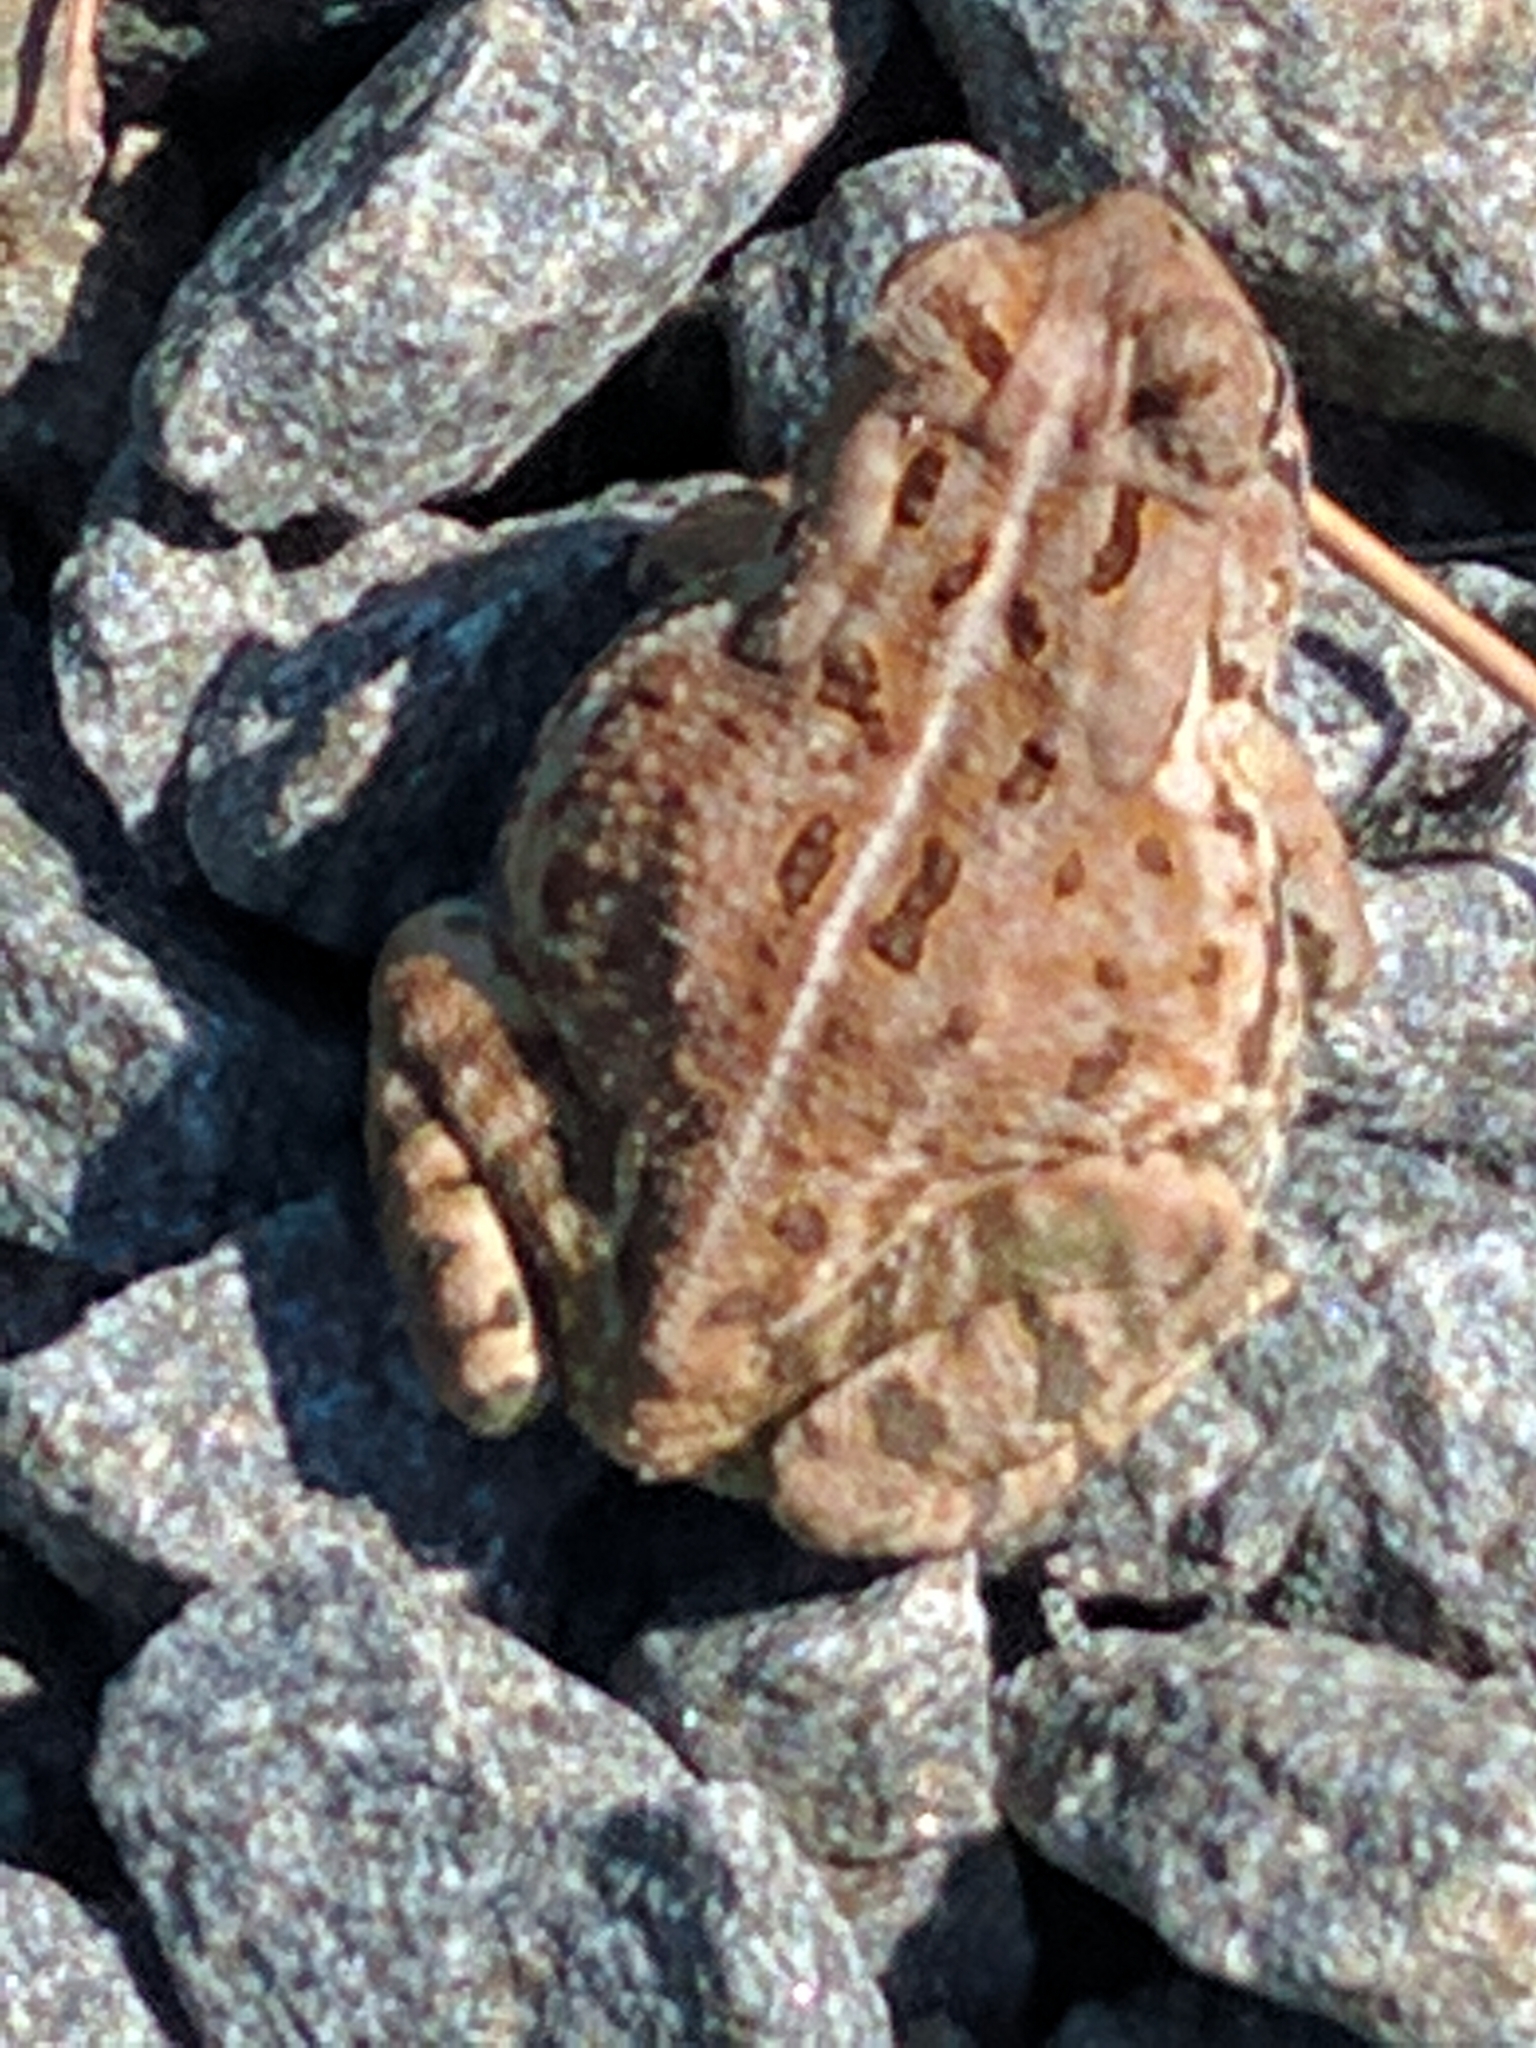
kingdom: Animalia
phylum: Chordata
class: Amphibia
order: Anura
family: Bufonidae
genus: Anaxyrus
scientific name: Anaxyrus fowleri
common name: Fowler's toad
